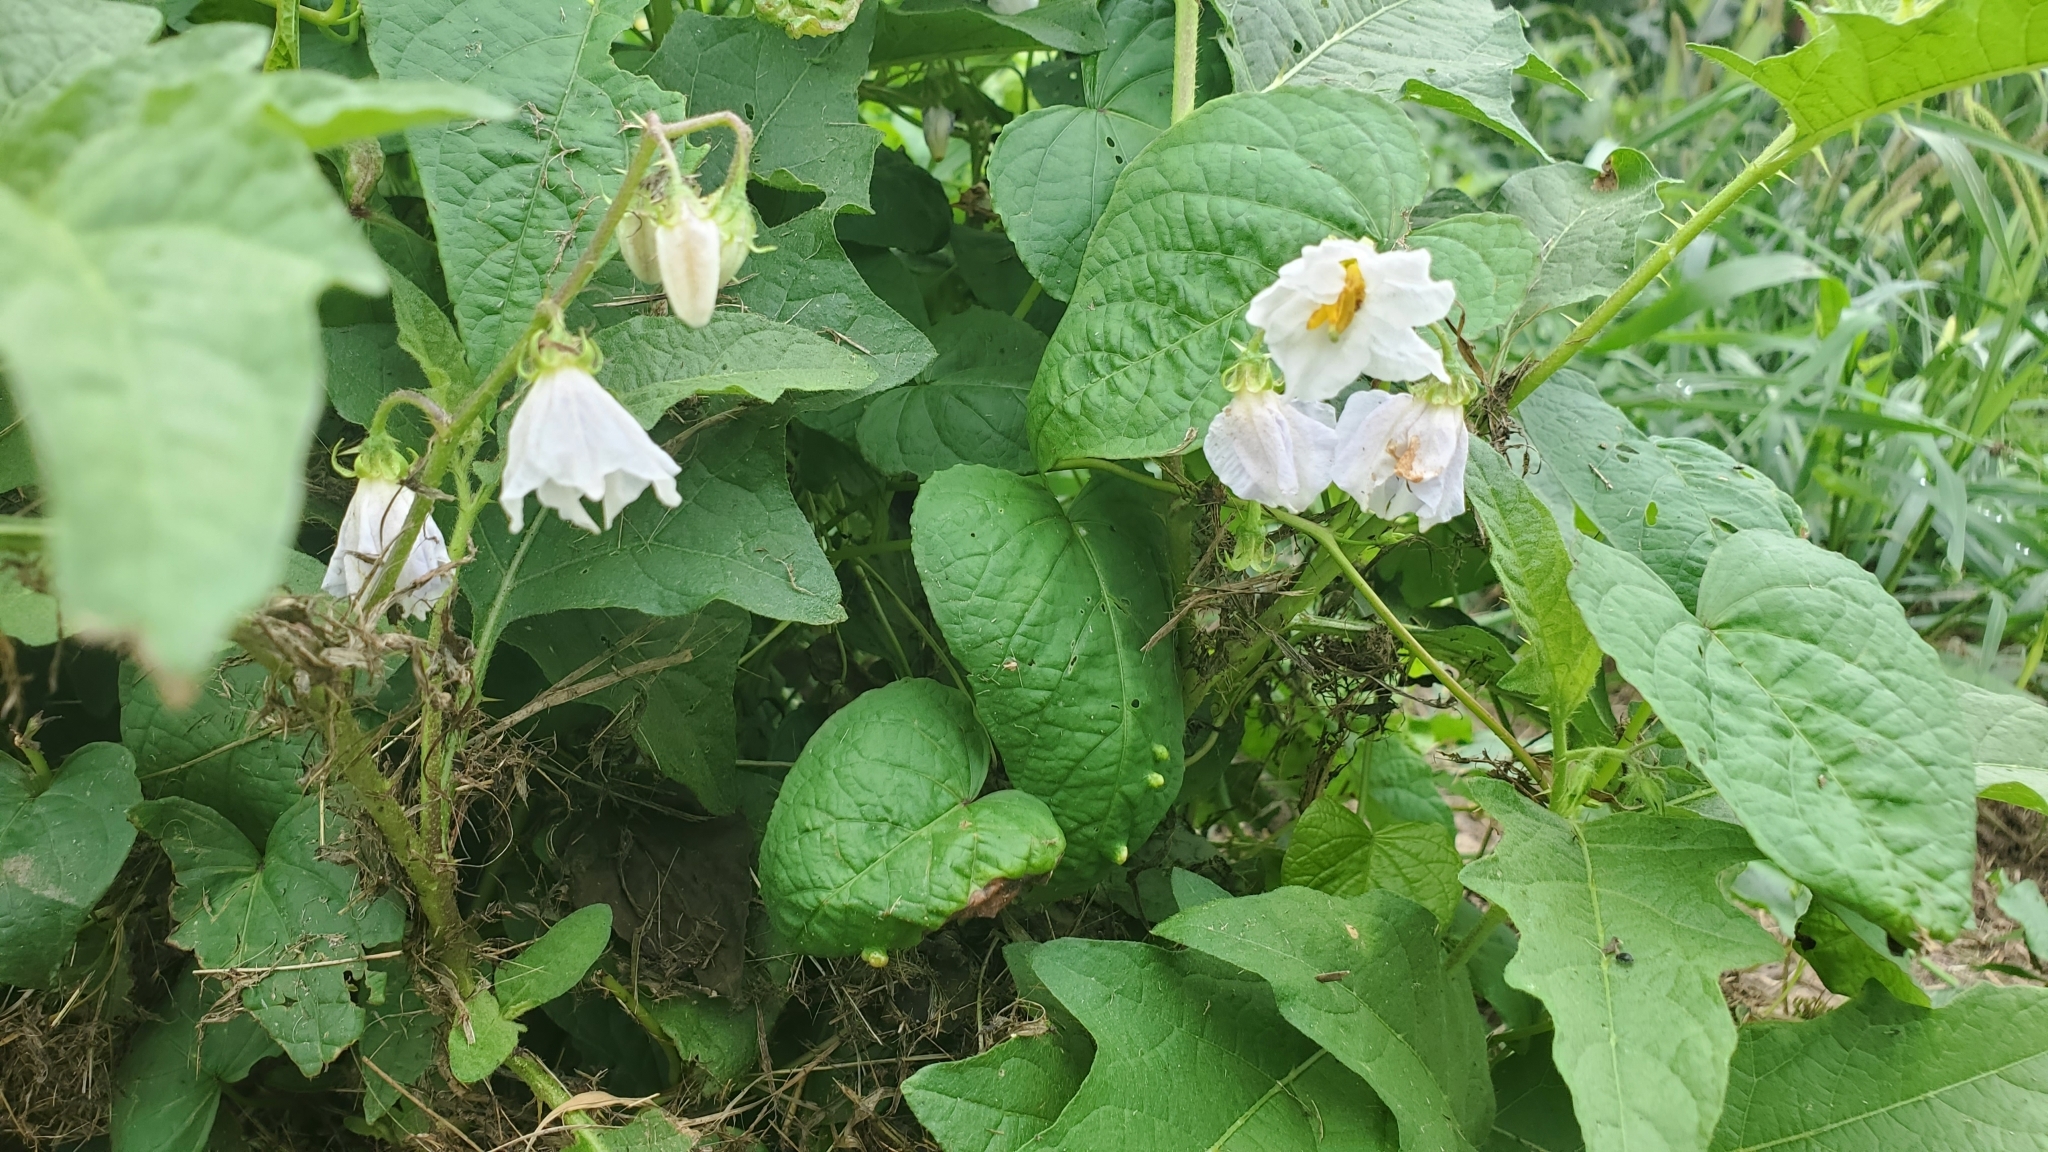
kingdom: Plantae
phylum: Tracheophyta
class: Magnoliopsida
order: Solanales
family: Solanaceae
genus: Solanum
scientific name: Solanum carolinense
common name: Horse-nettle
